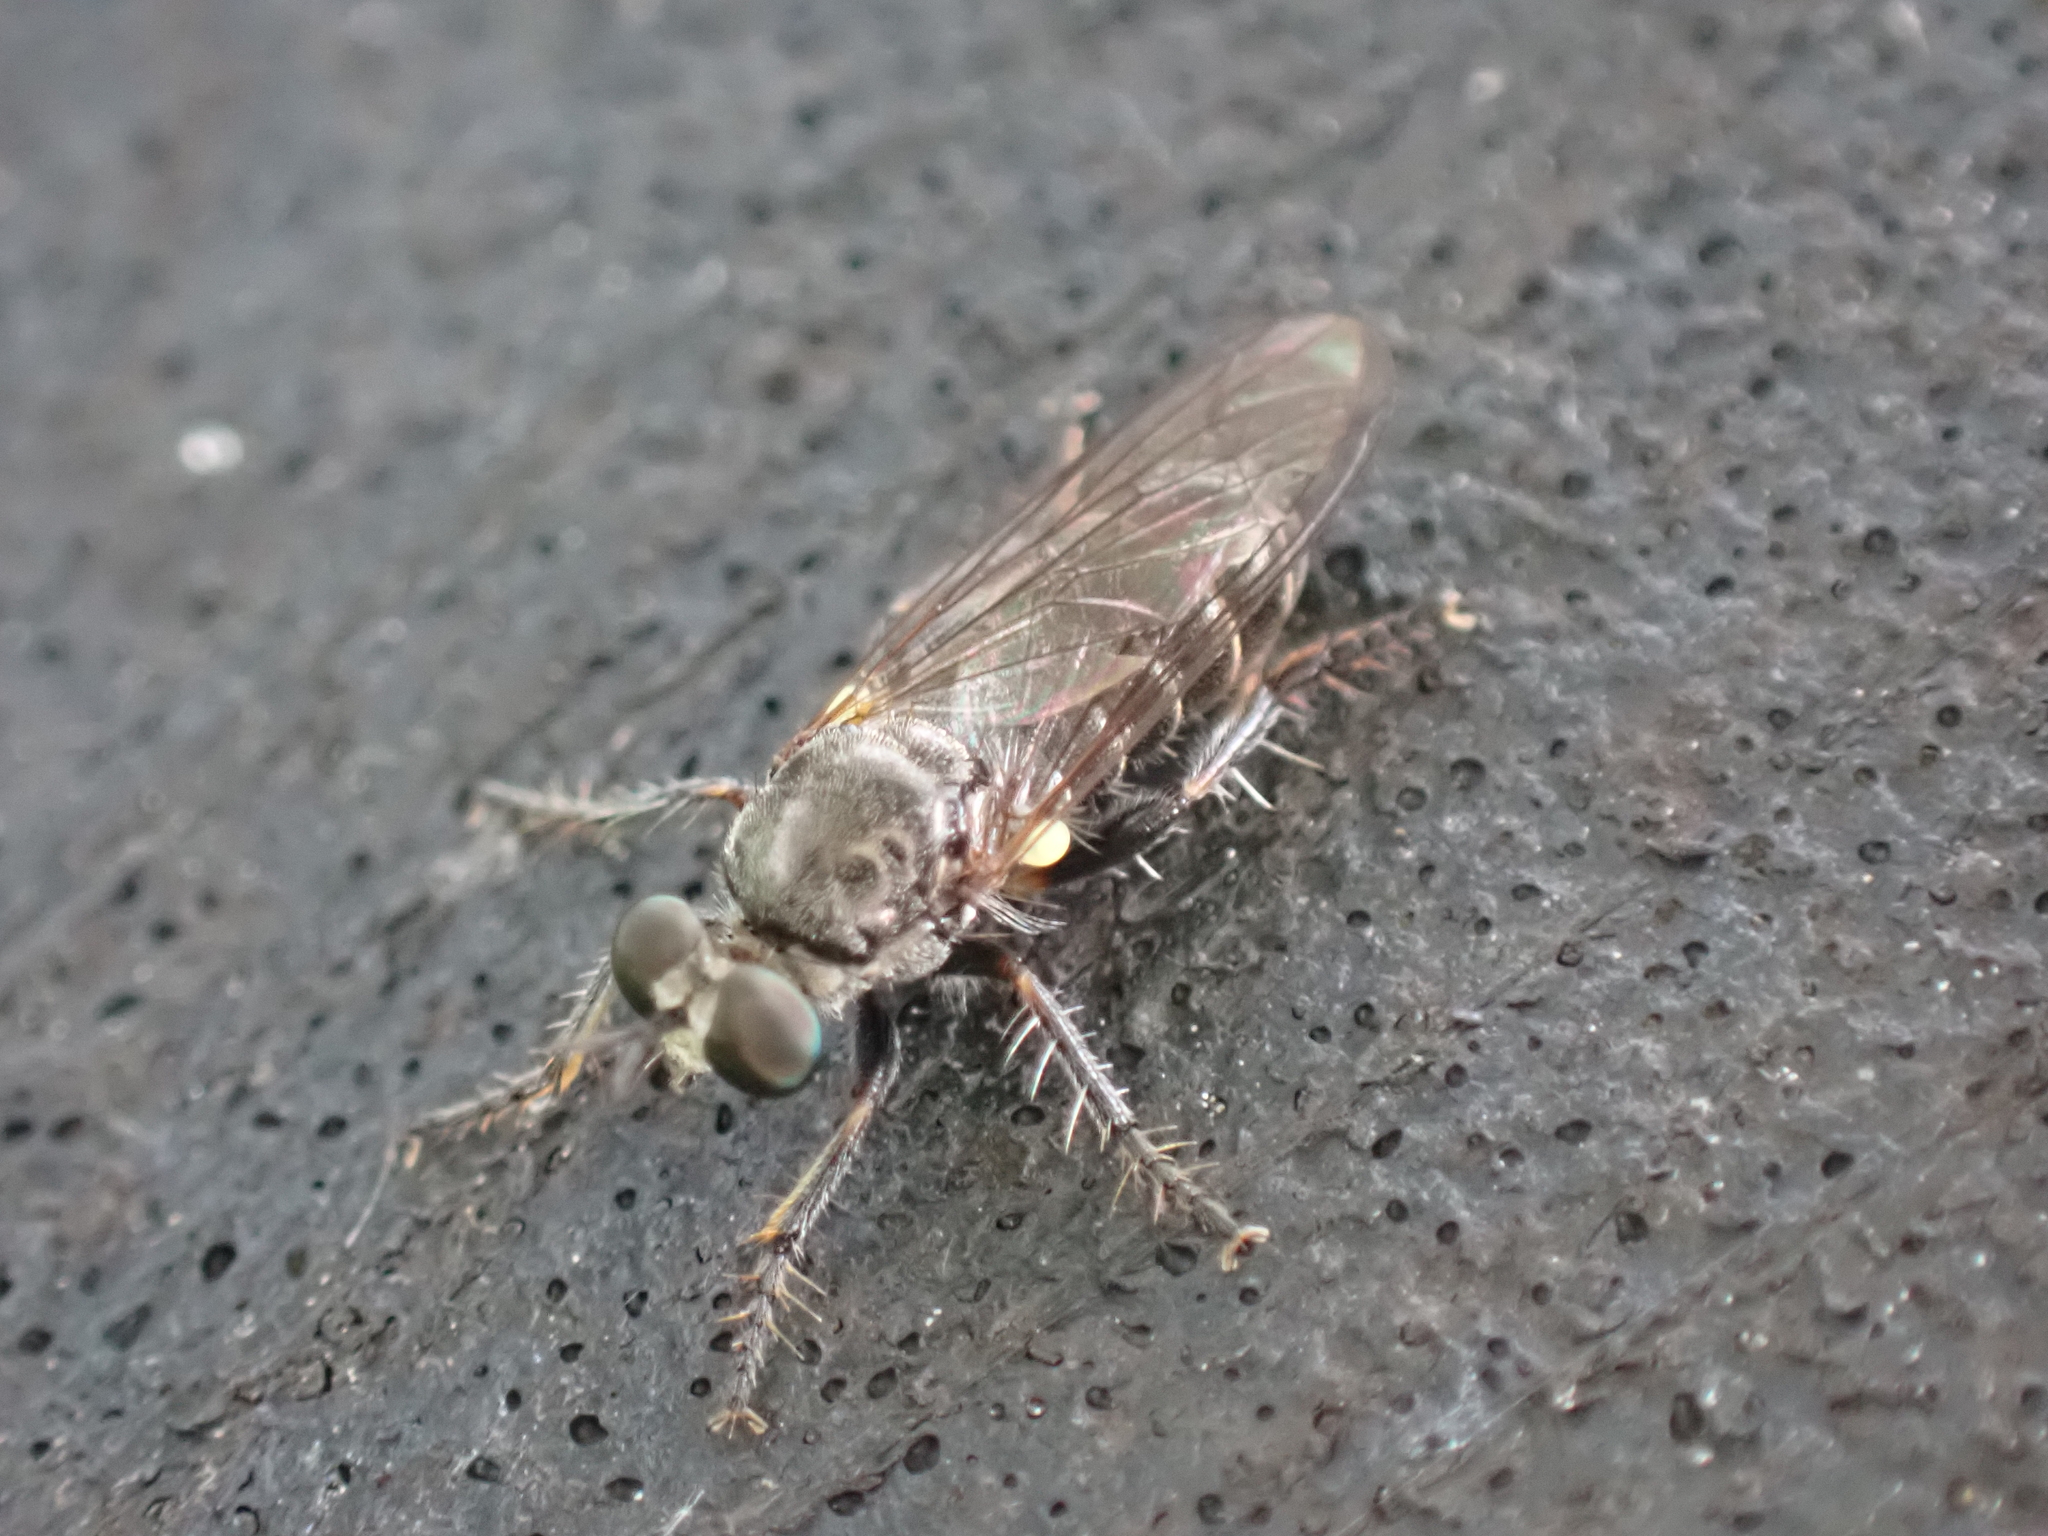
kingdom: Animalia
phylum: Arthropoda
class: Insecta
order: Diptera
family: Asilidae
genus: Atomosia
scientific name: Atomosia puella
